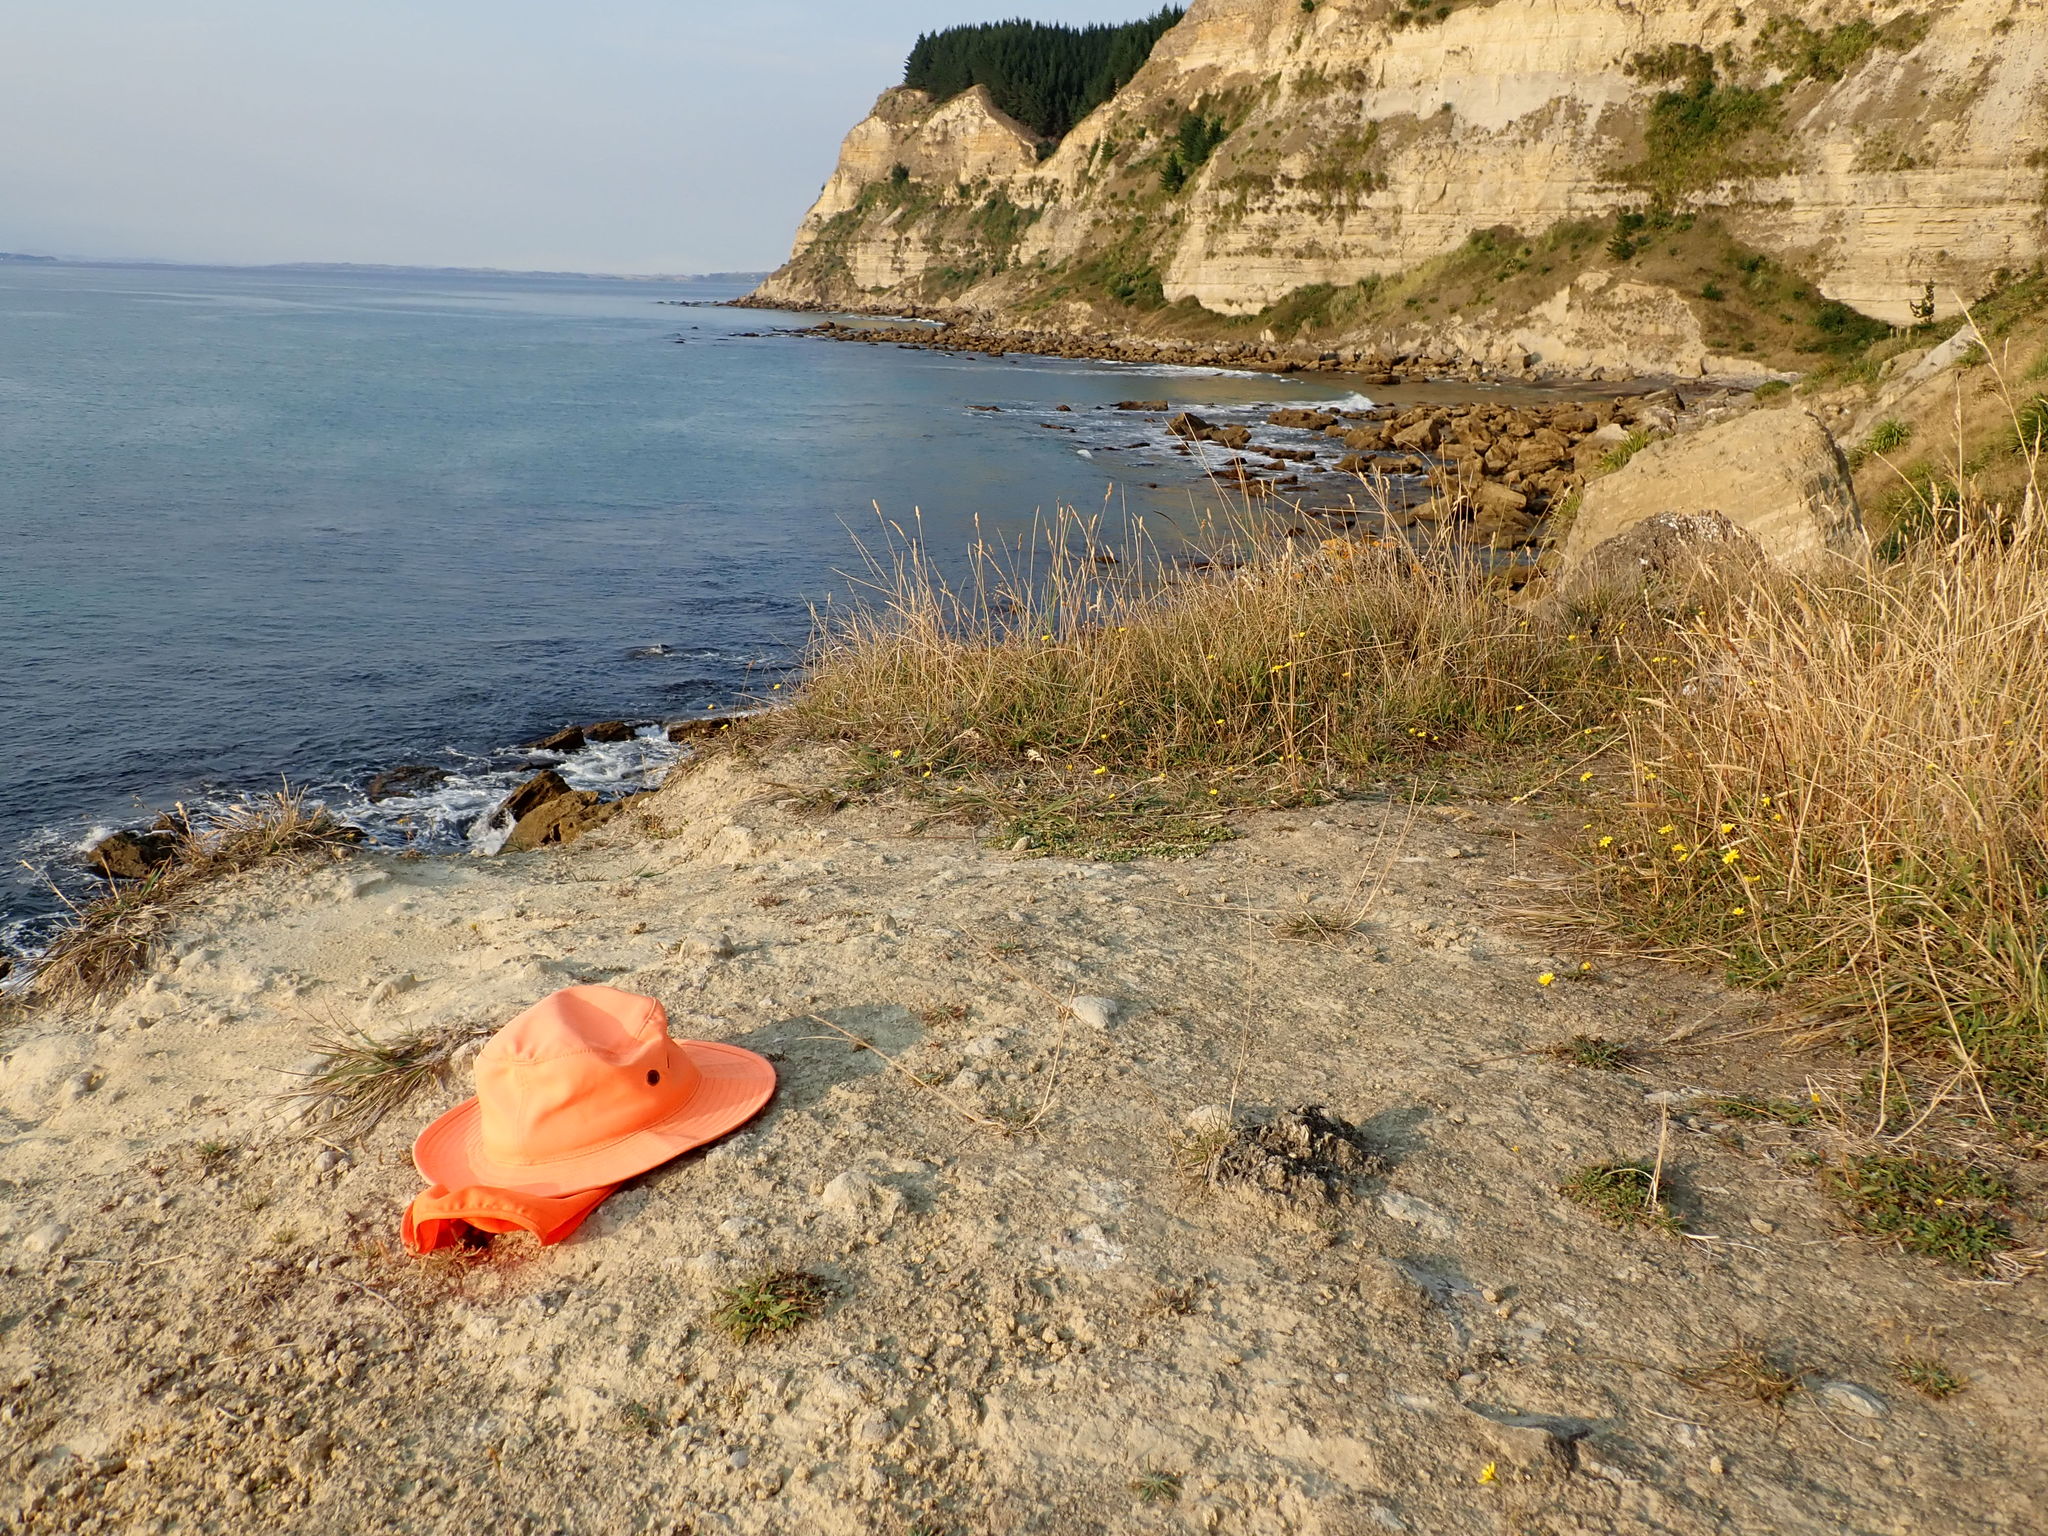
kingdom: Plantae
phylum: Tracheophyta
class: Magnoliopsida
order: Lamiales
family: Plantaginaceae
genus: Plantago
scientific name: Plantago coronopus
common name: Buck's-horn plantain
